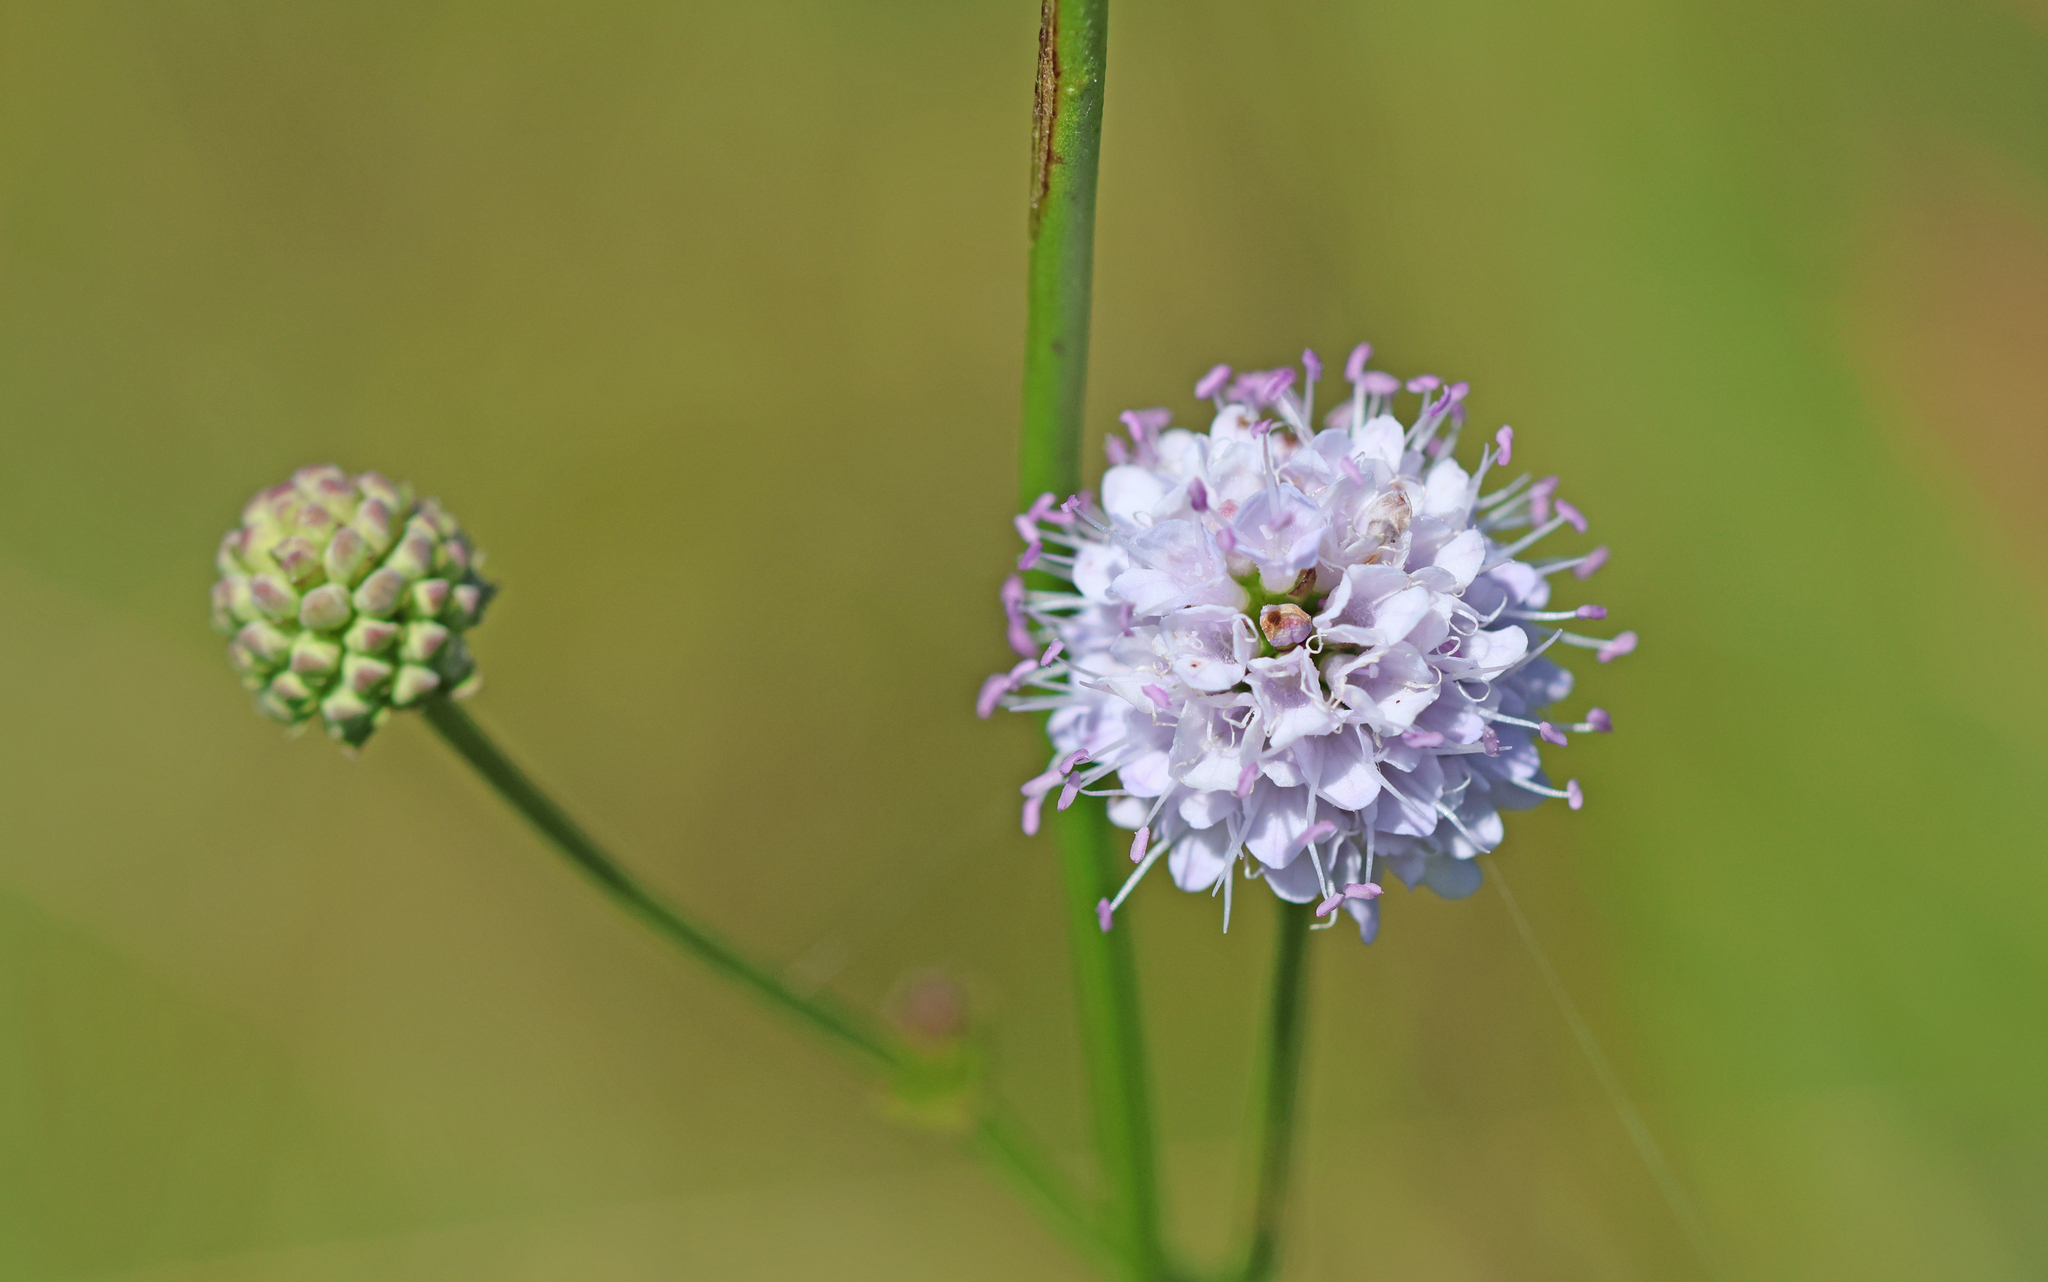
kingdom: Plantae
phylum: Tracheophyta
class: Magnoliopsida
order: Dipsacales
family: Caprifoliaceae
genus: Succisella
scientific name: Succisella inflexa
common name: Southern succisella
